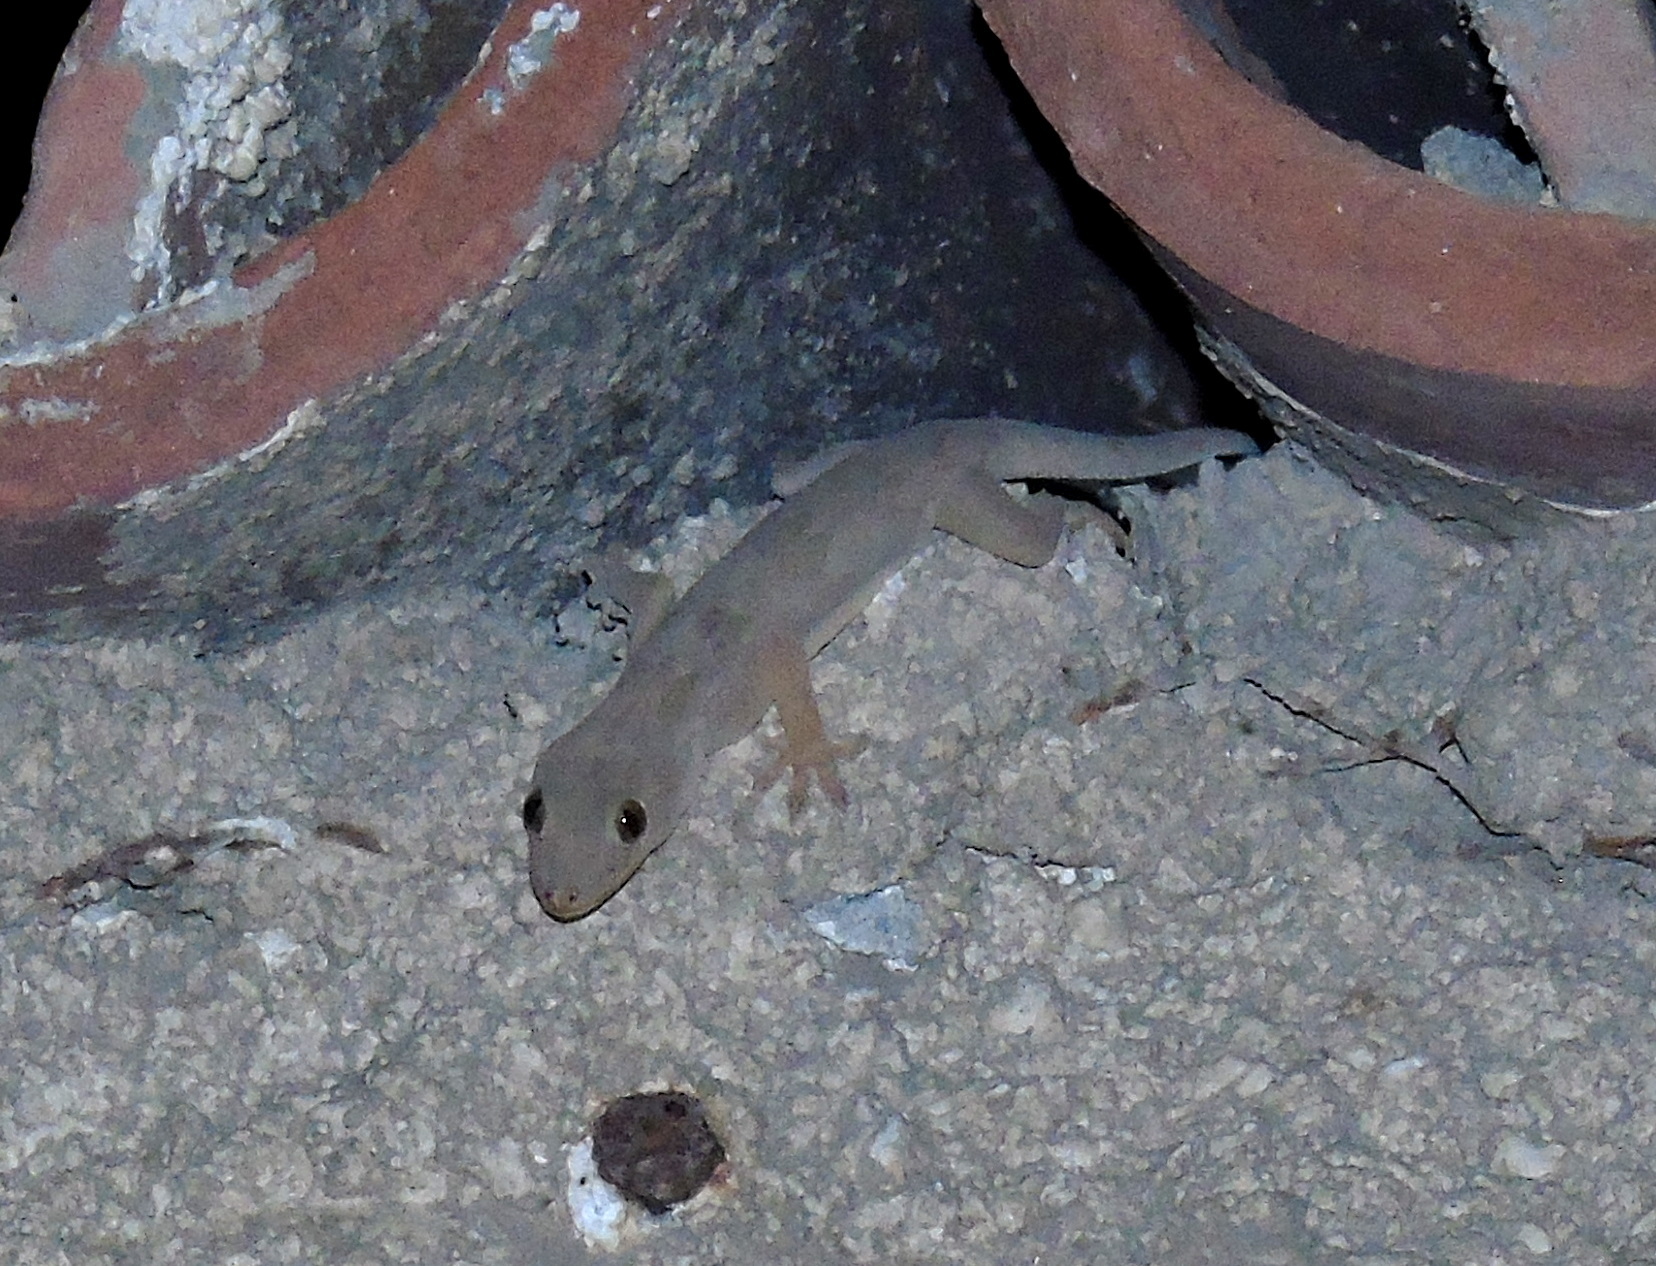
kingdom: Animalia
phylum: Chordata
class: Squamata
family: Gekkonidae
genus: Hemidactylus
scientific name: Hemidactylus flaviviridis
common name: Northern house gecko
